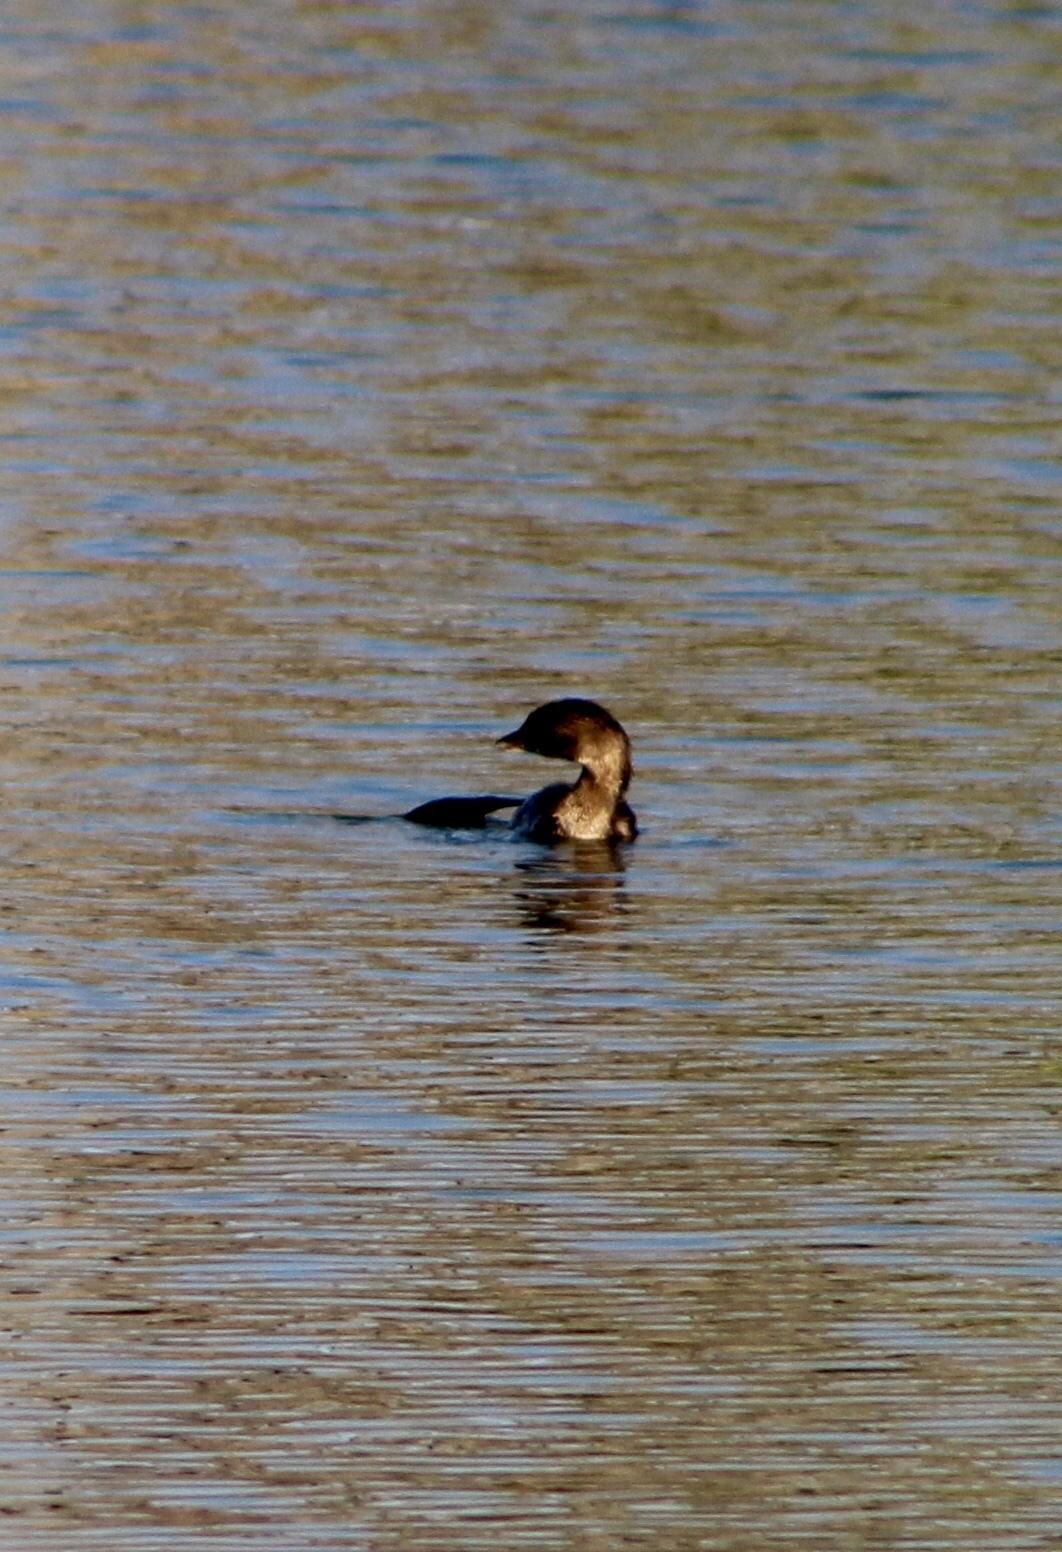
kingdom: Animalia
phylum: Chordata
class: Aves
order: Podicipediformes
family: Podicipedidae
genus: Podilymbus
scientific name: Podilymbus podiceps
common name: Pied-billed grebe
